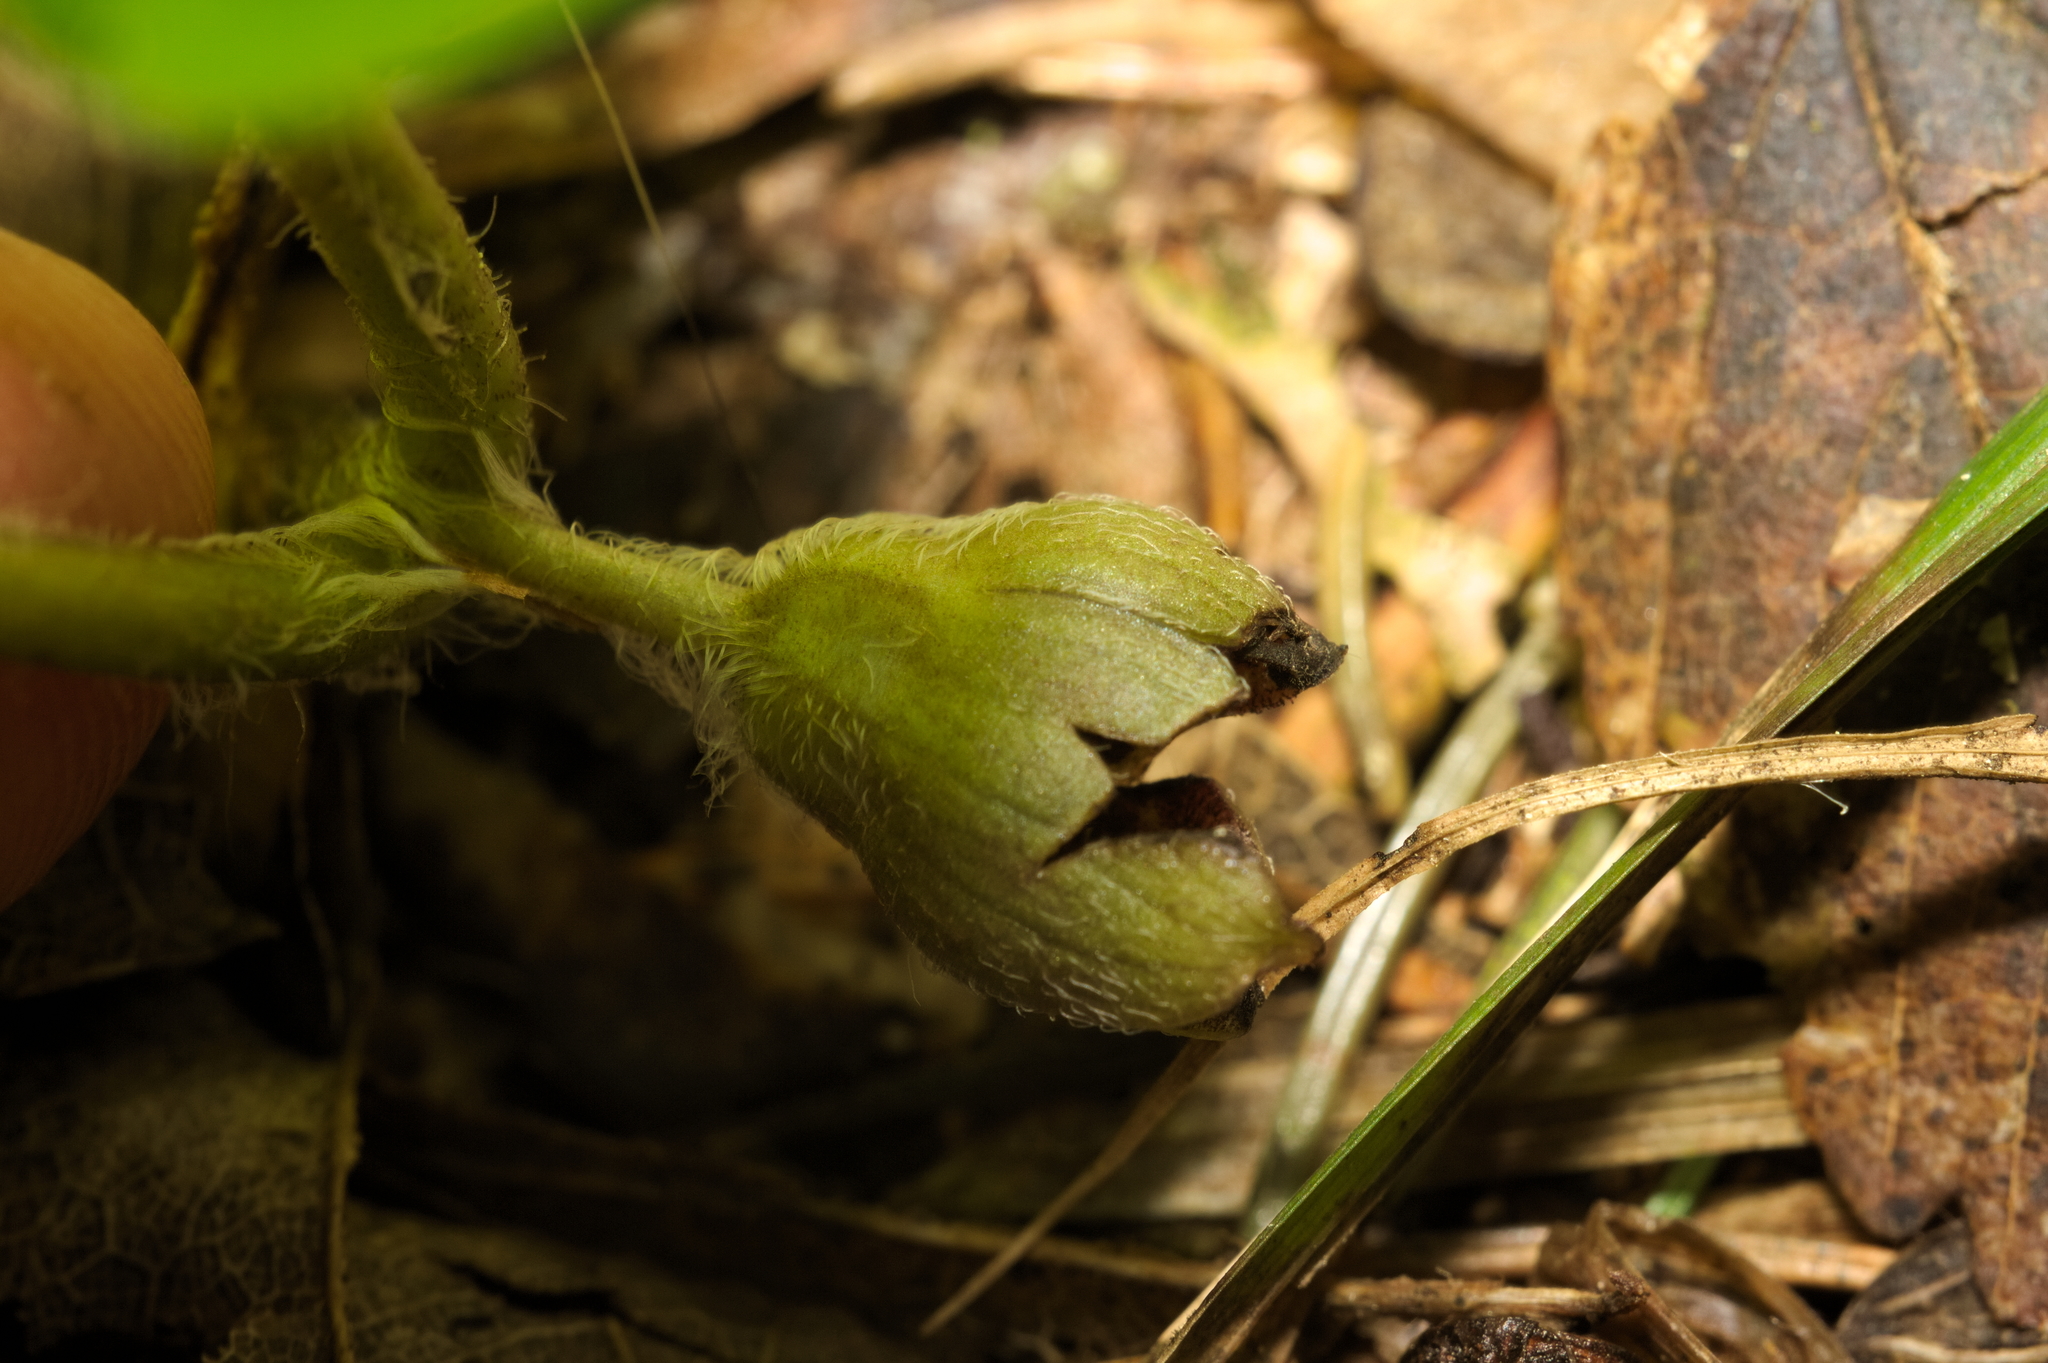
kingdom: Plantae
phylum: Tracheophyta
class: Magnoliopsida
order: Piperales
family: Aristolochiaceae
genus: Asarum
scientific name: Asarum europaeum
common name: Asarabacca
